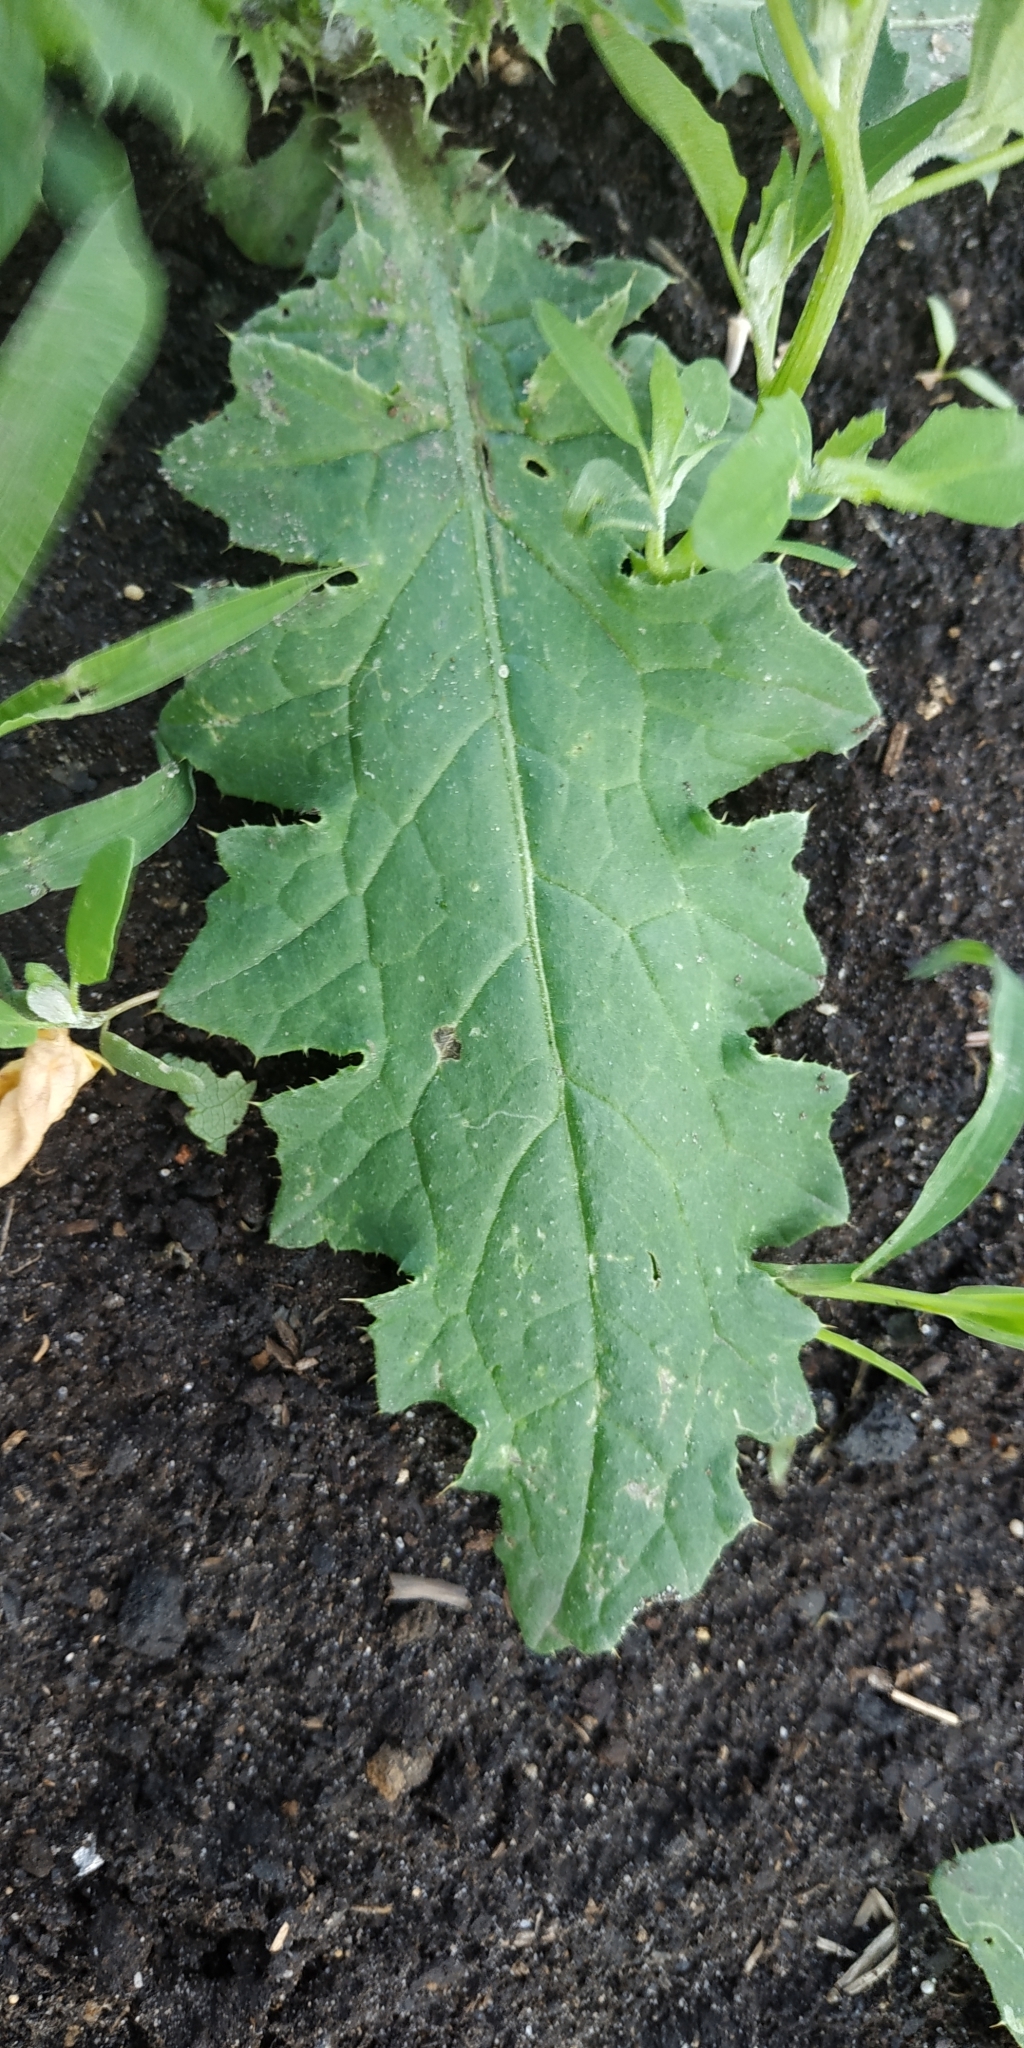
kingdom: Plantae
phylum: Tracheophyta
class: Magnoliopsida
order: Asterales
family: Asteraceae
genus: Carduus
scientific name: Carduus acanthoides
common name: Plumeless thistle
